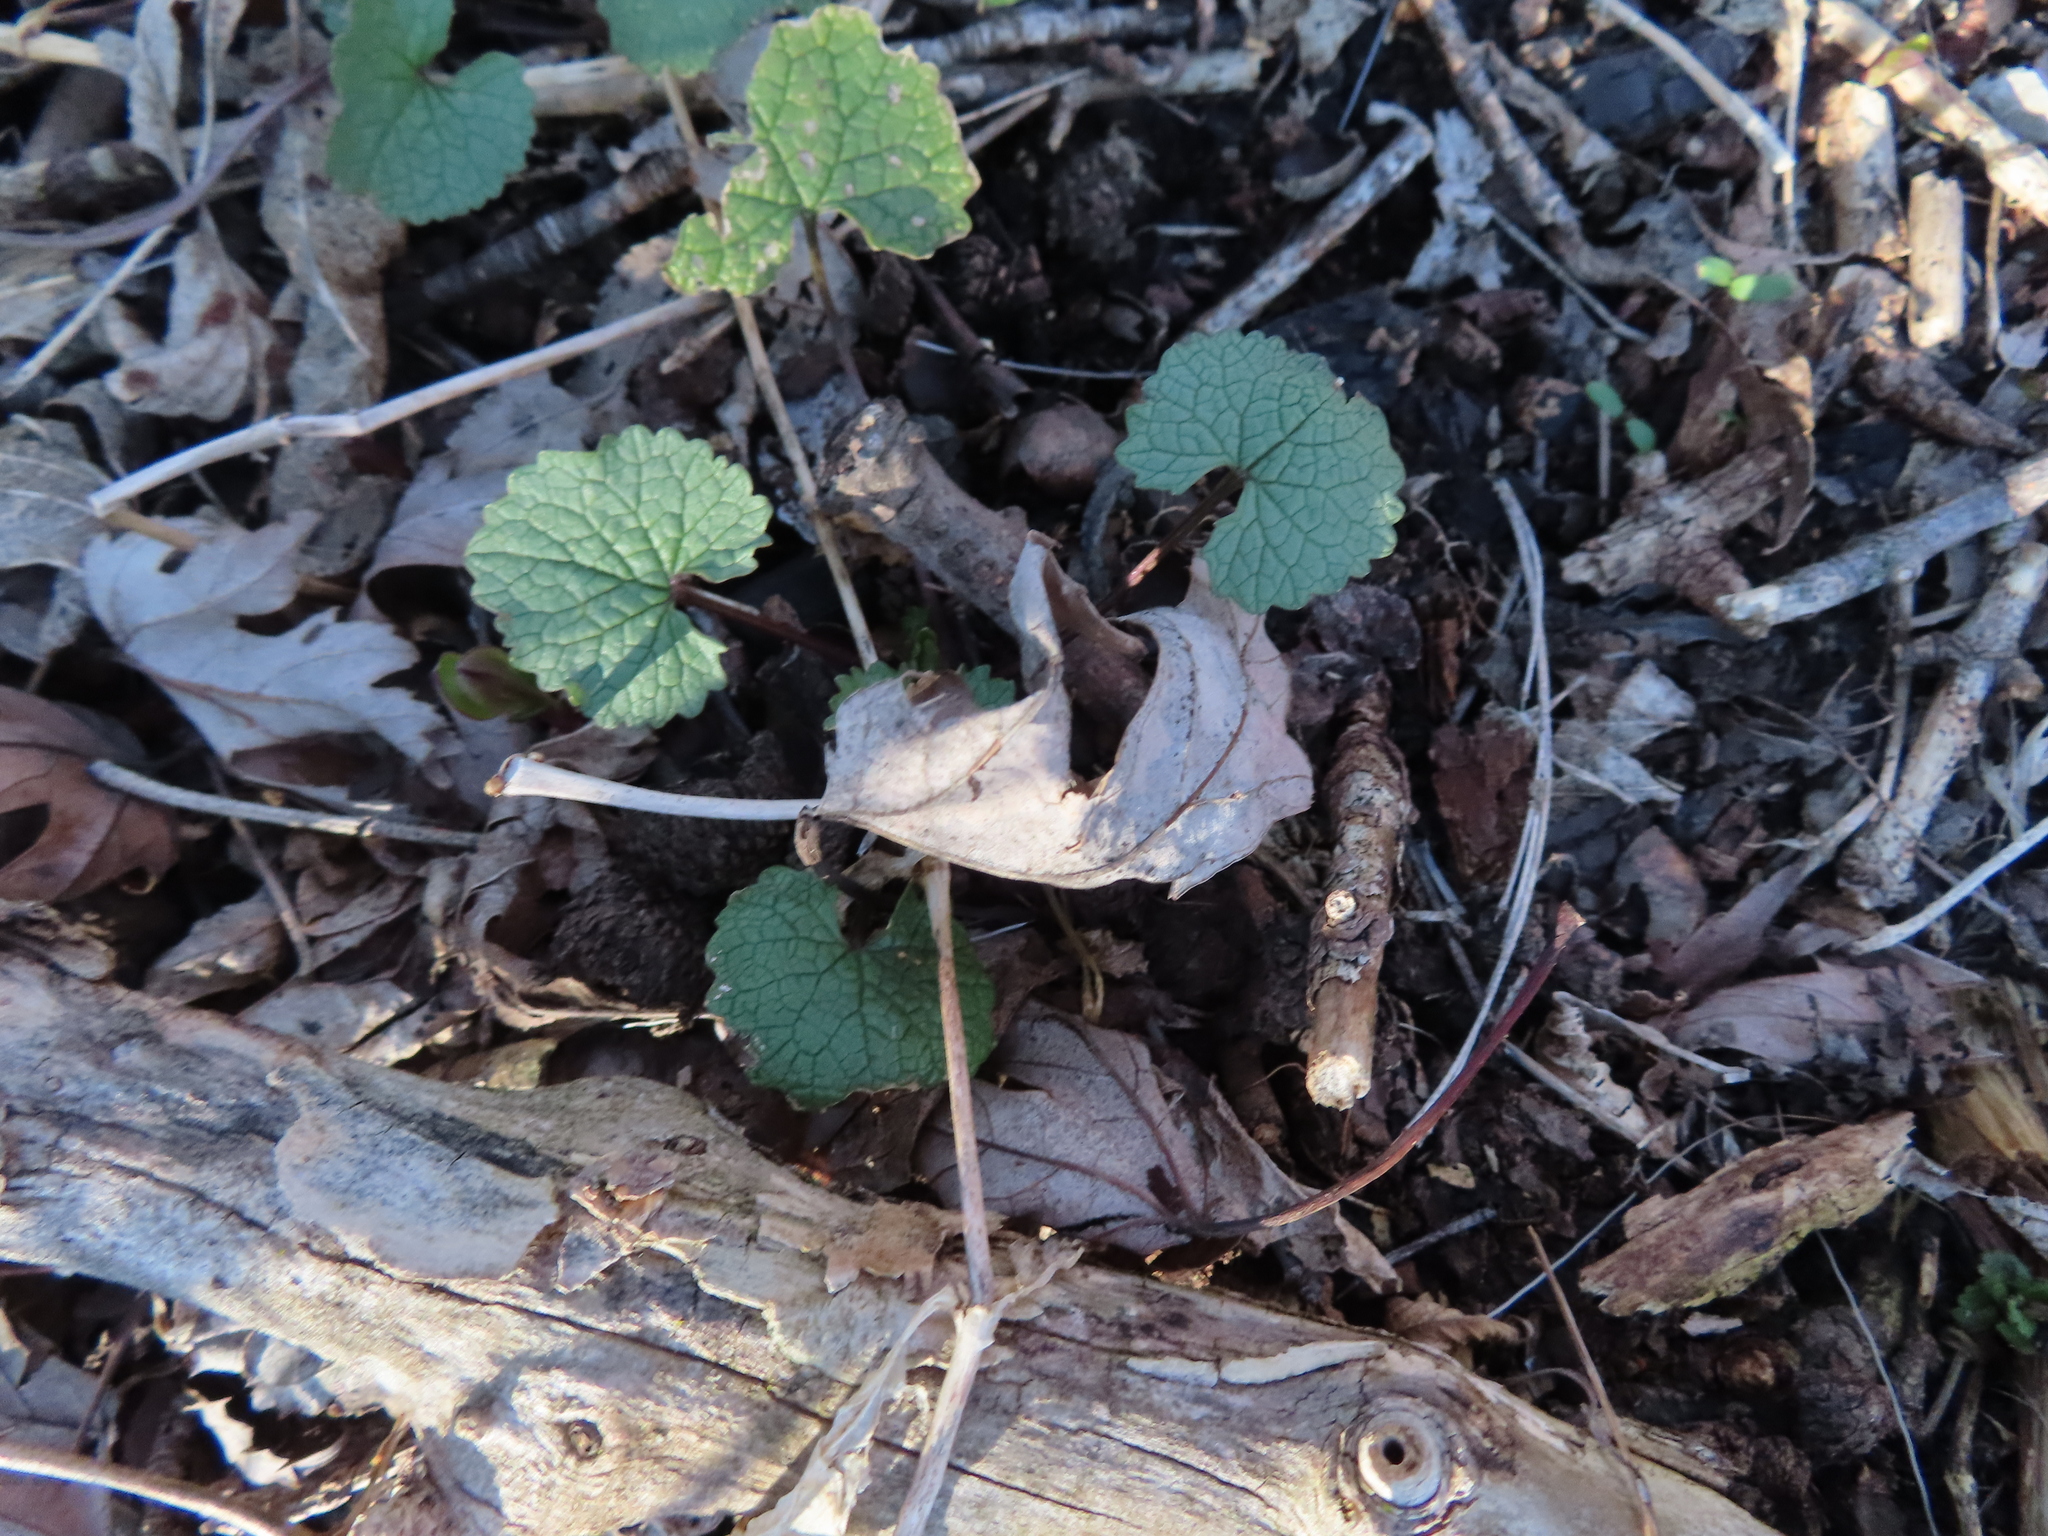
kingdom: Plantae
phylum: Tracheophyta
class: Magnoliopsida
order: Brassicales
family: Brassicaceae
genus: Alliaria
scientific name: Alliaria petiolata
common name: Garlic mustard
